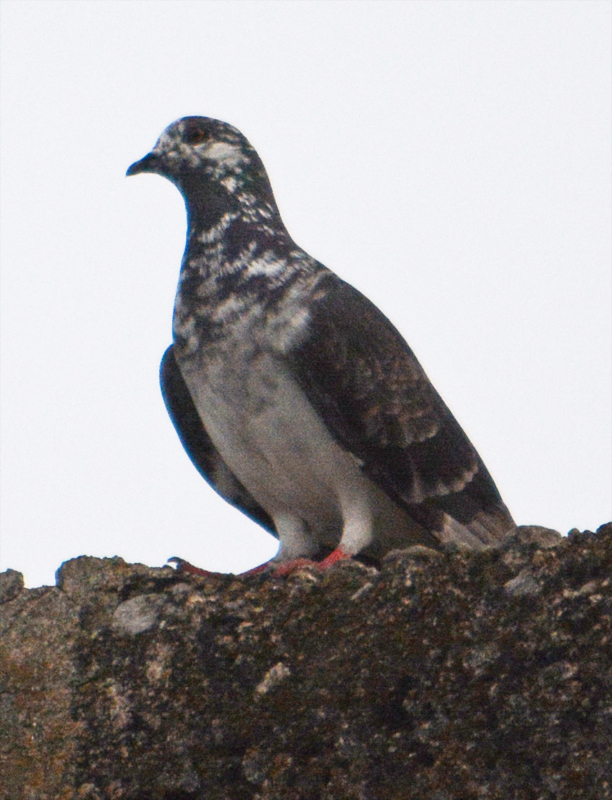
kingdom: Animalia
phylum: Chordata
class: Aves
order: Columbiformes
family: Columbidae
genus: Columba
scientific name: Columba livia
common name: Rock pigeon
